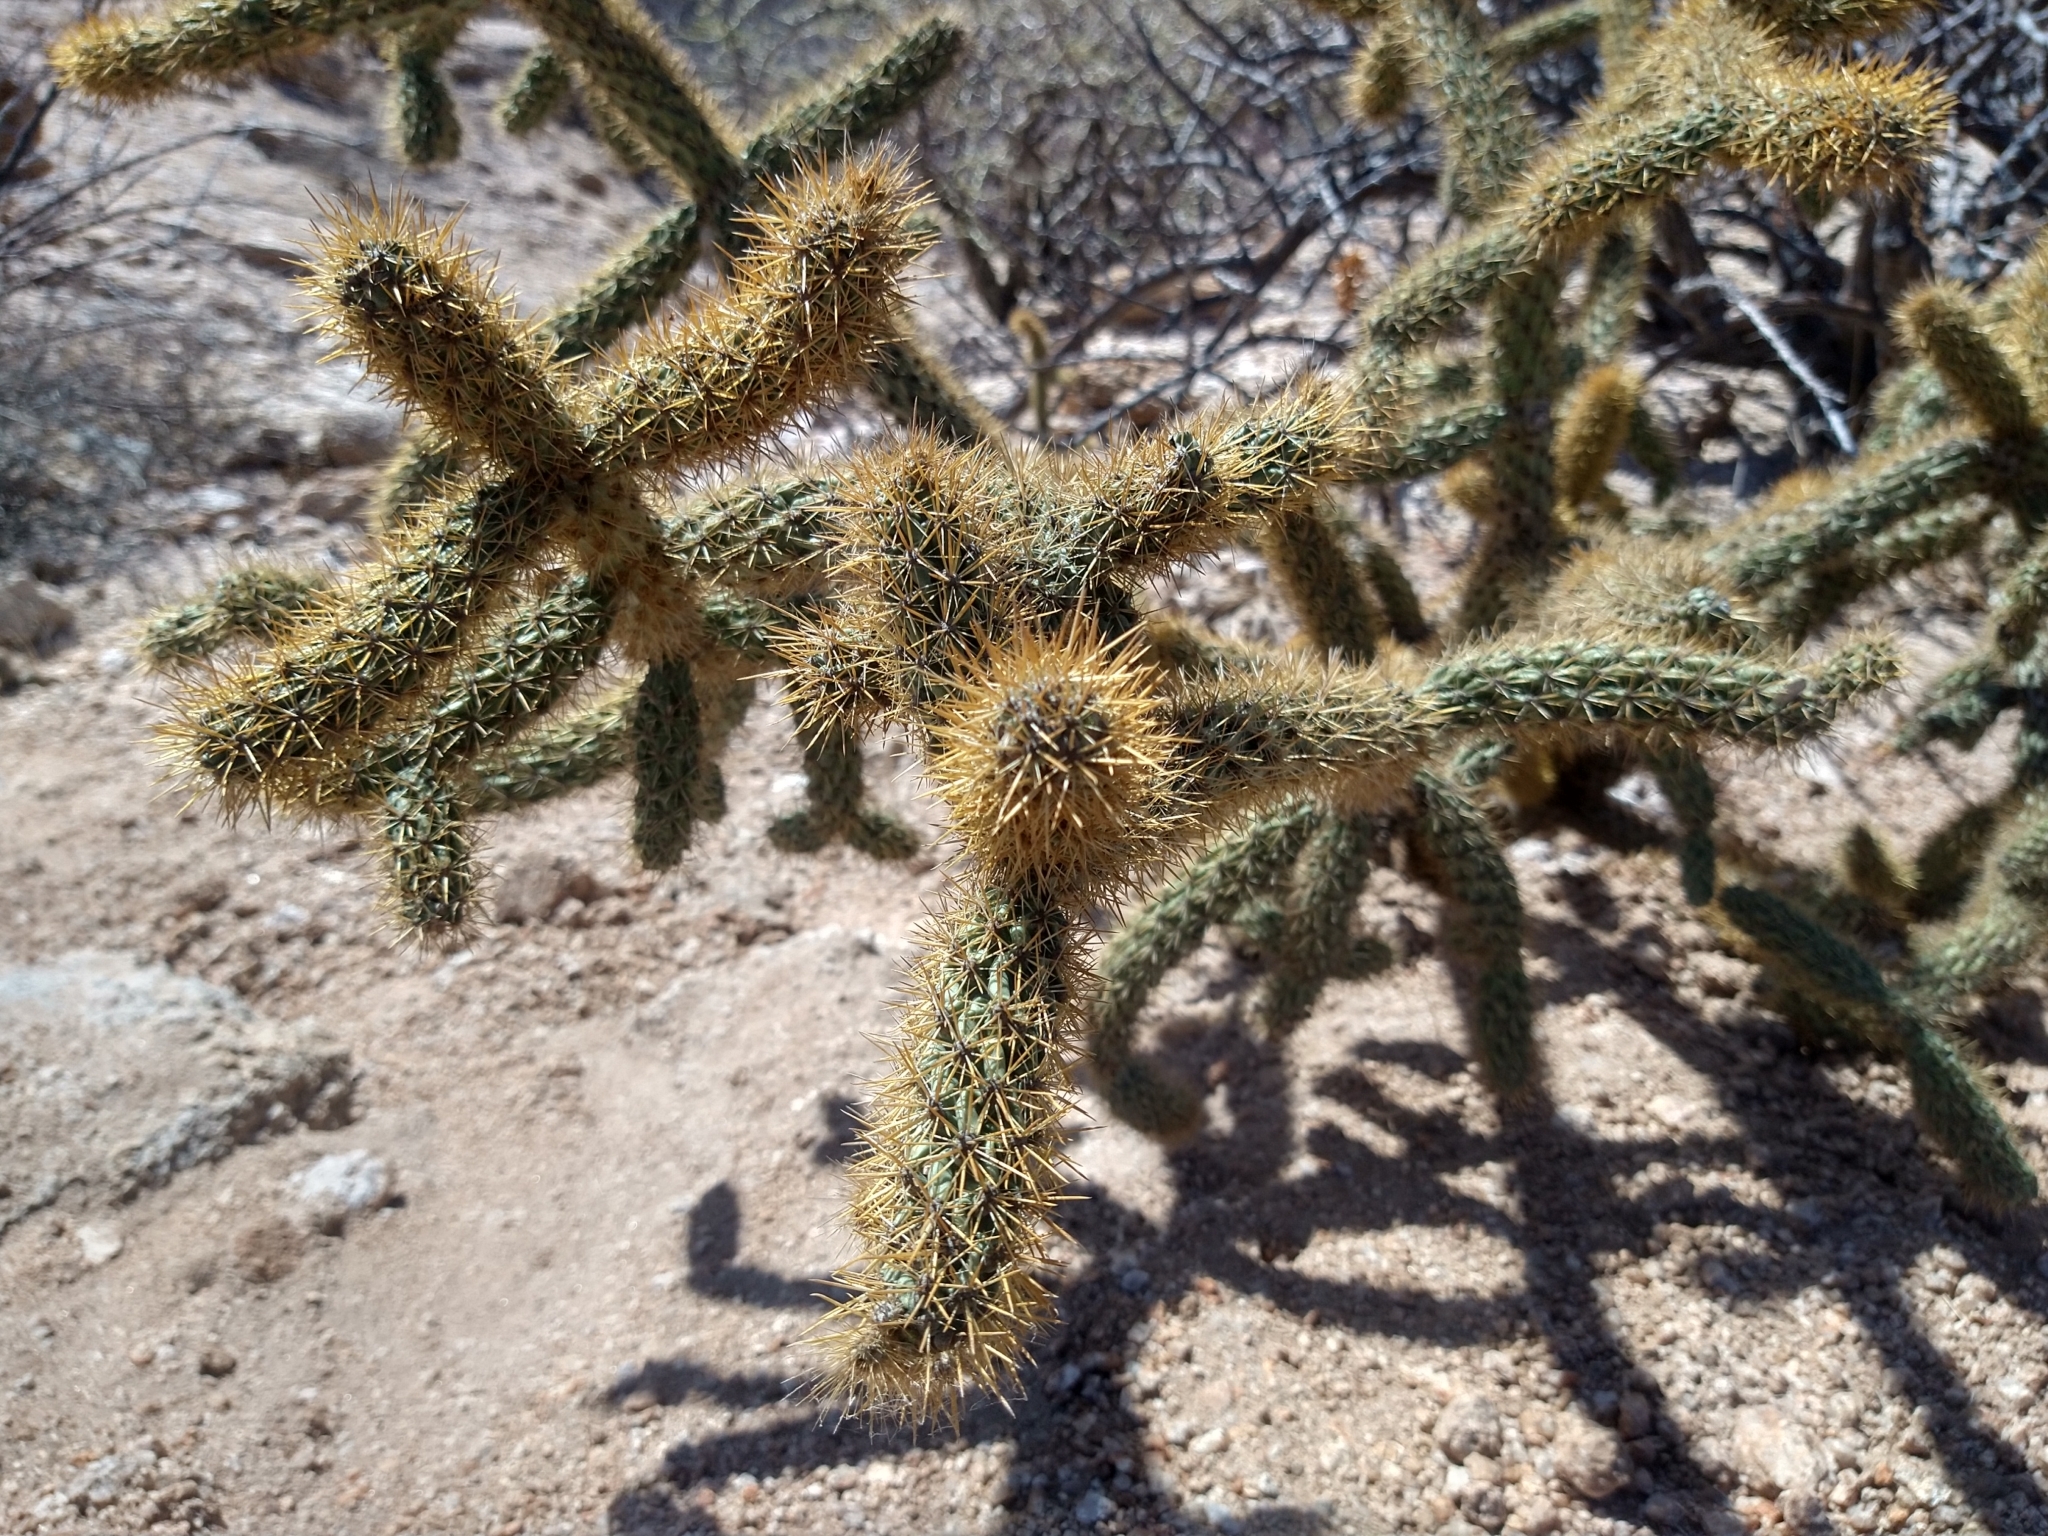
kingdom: Plantae
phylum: Tracheophyta
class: Magnoliopsida
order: Caryophyllales
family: Cactaceae
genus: Cylindropuntia
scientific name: Cylindropuntia alcahes
